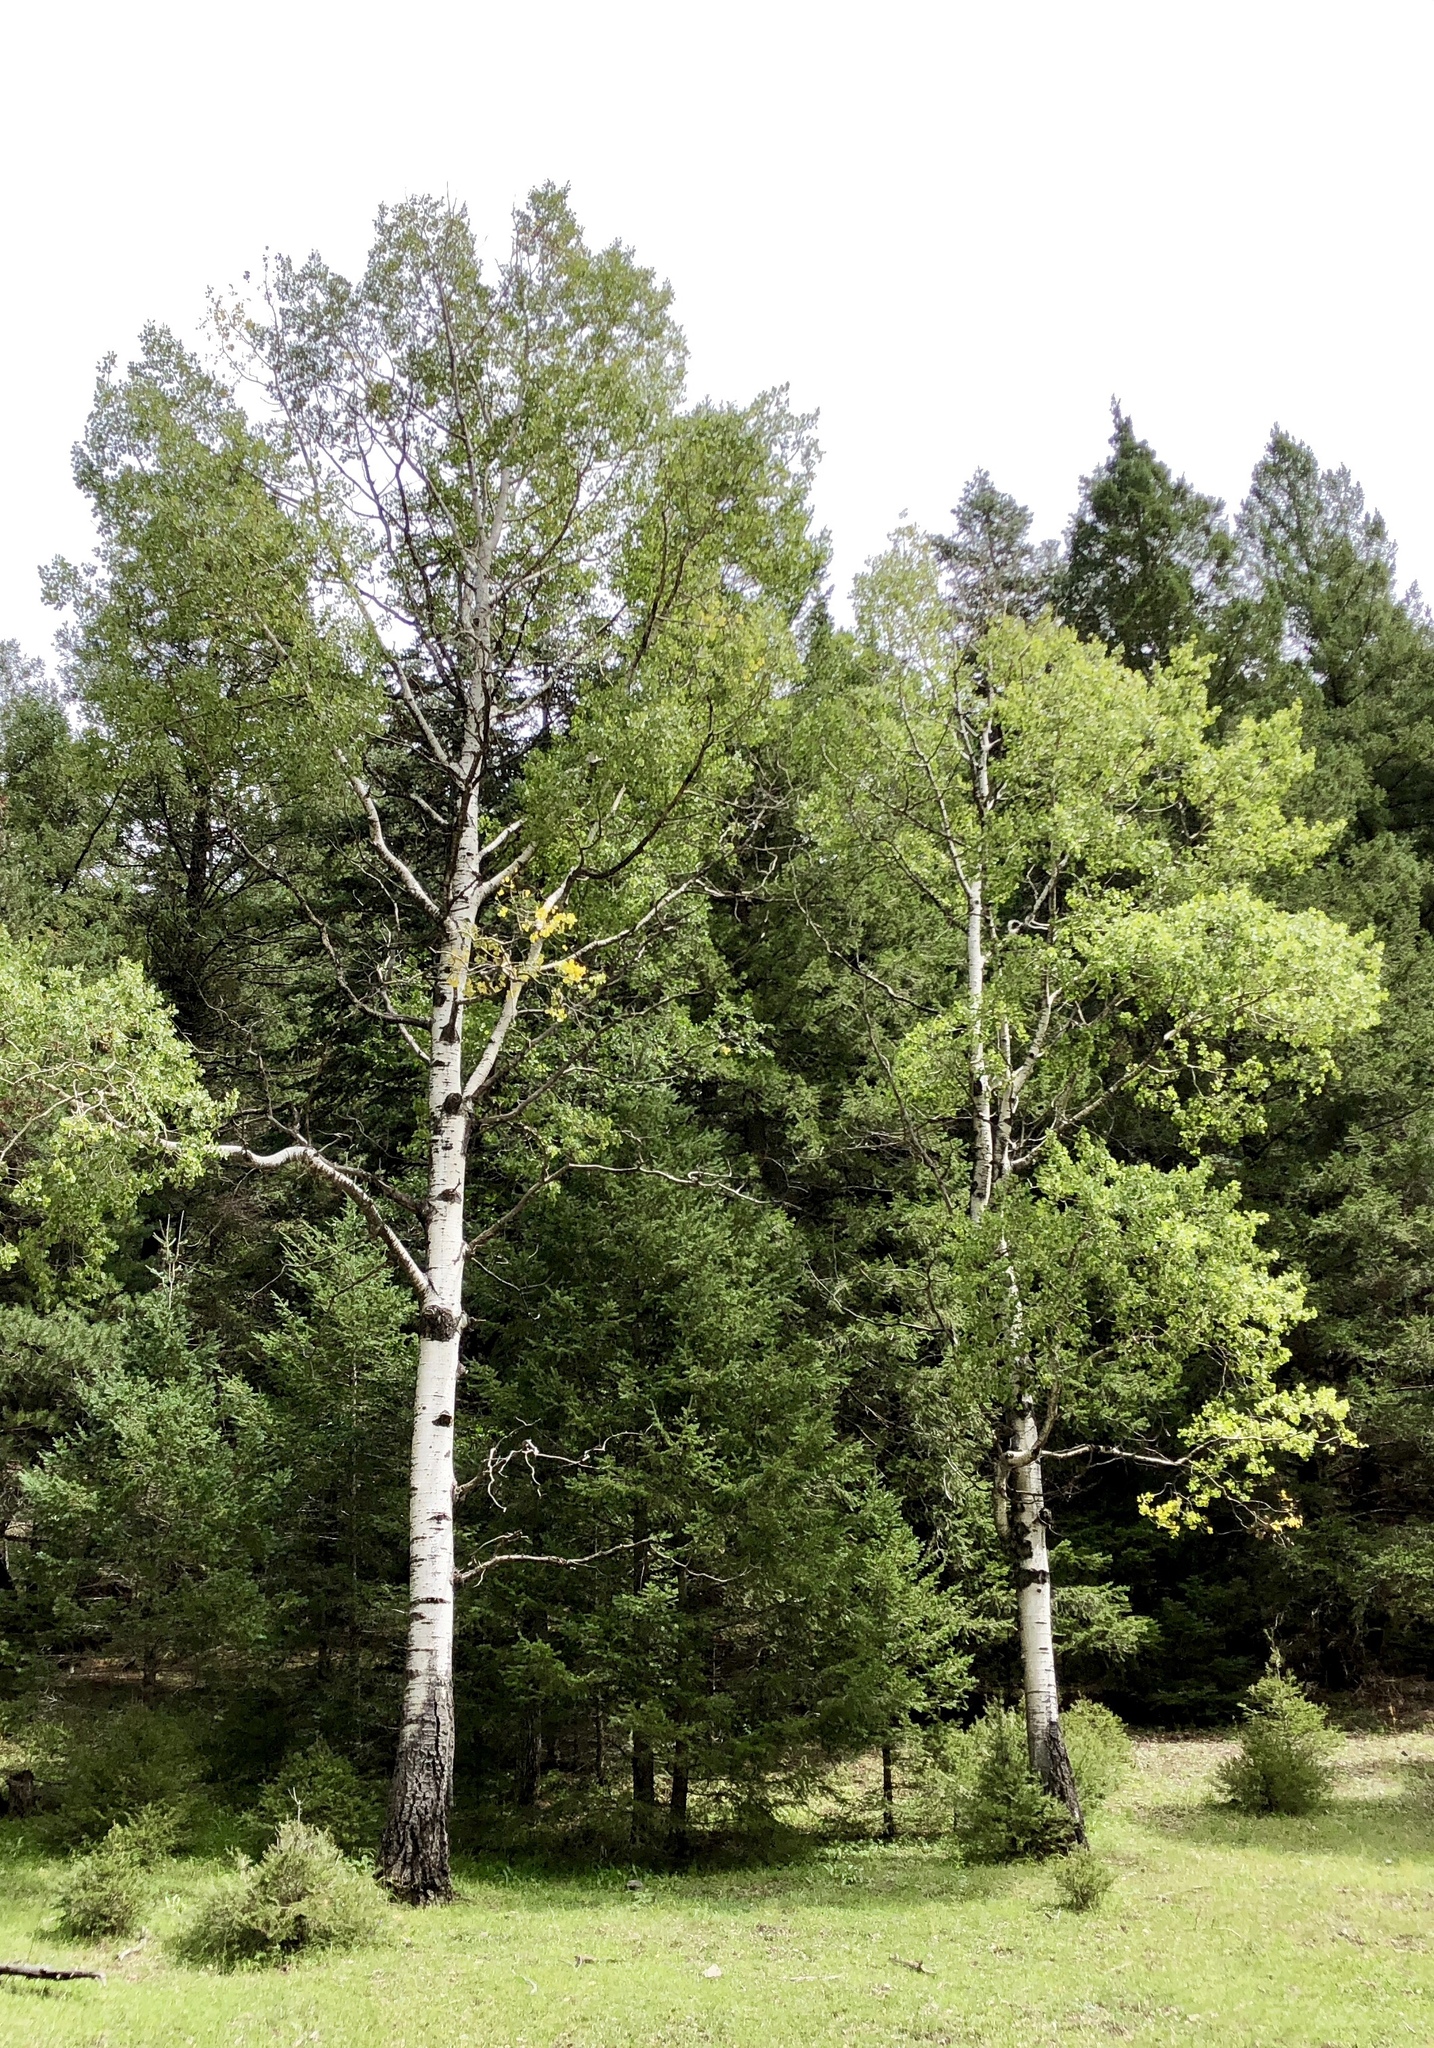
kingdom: Plantae
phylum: Tracheophyta
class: Magnoliopsida
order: Malpighiales
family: Salicaceae
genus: Populus
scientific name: Populus tremuloides
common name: Quaking aspen
